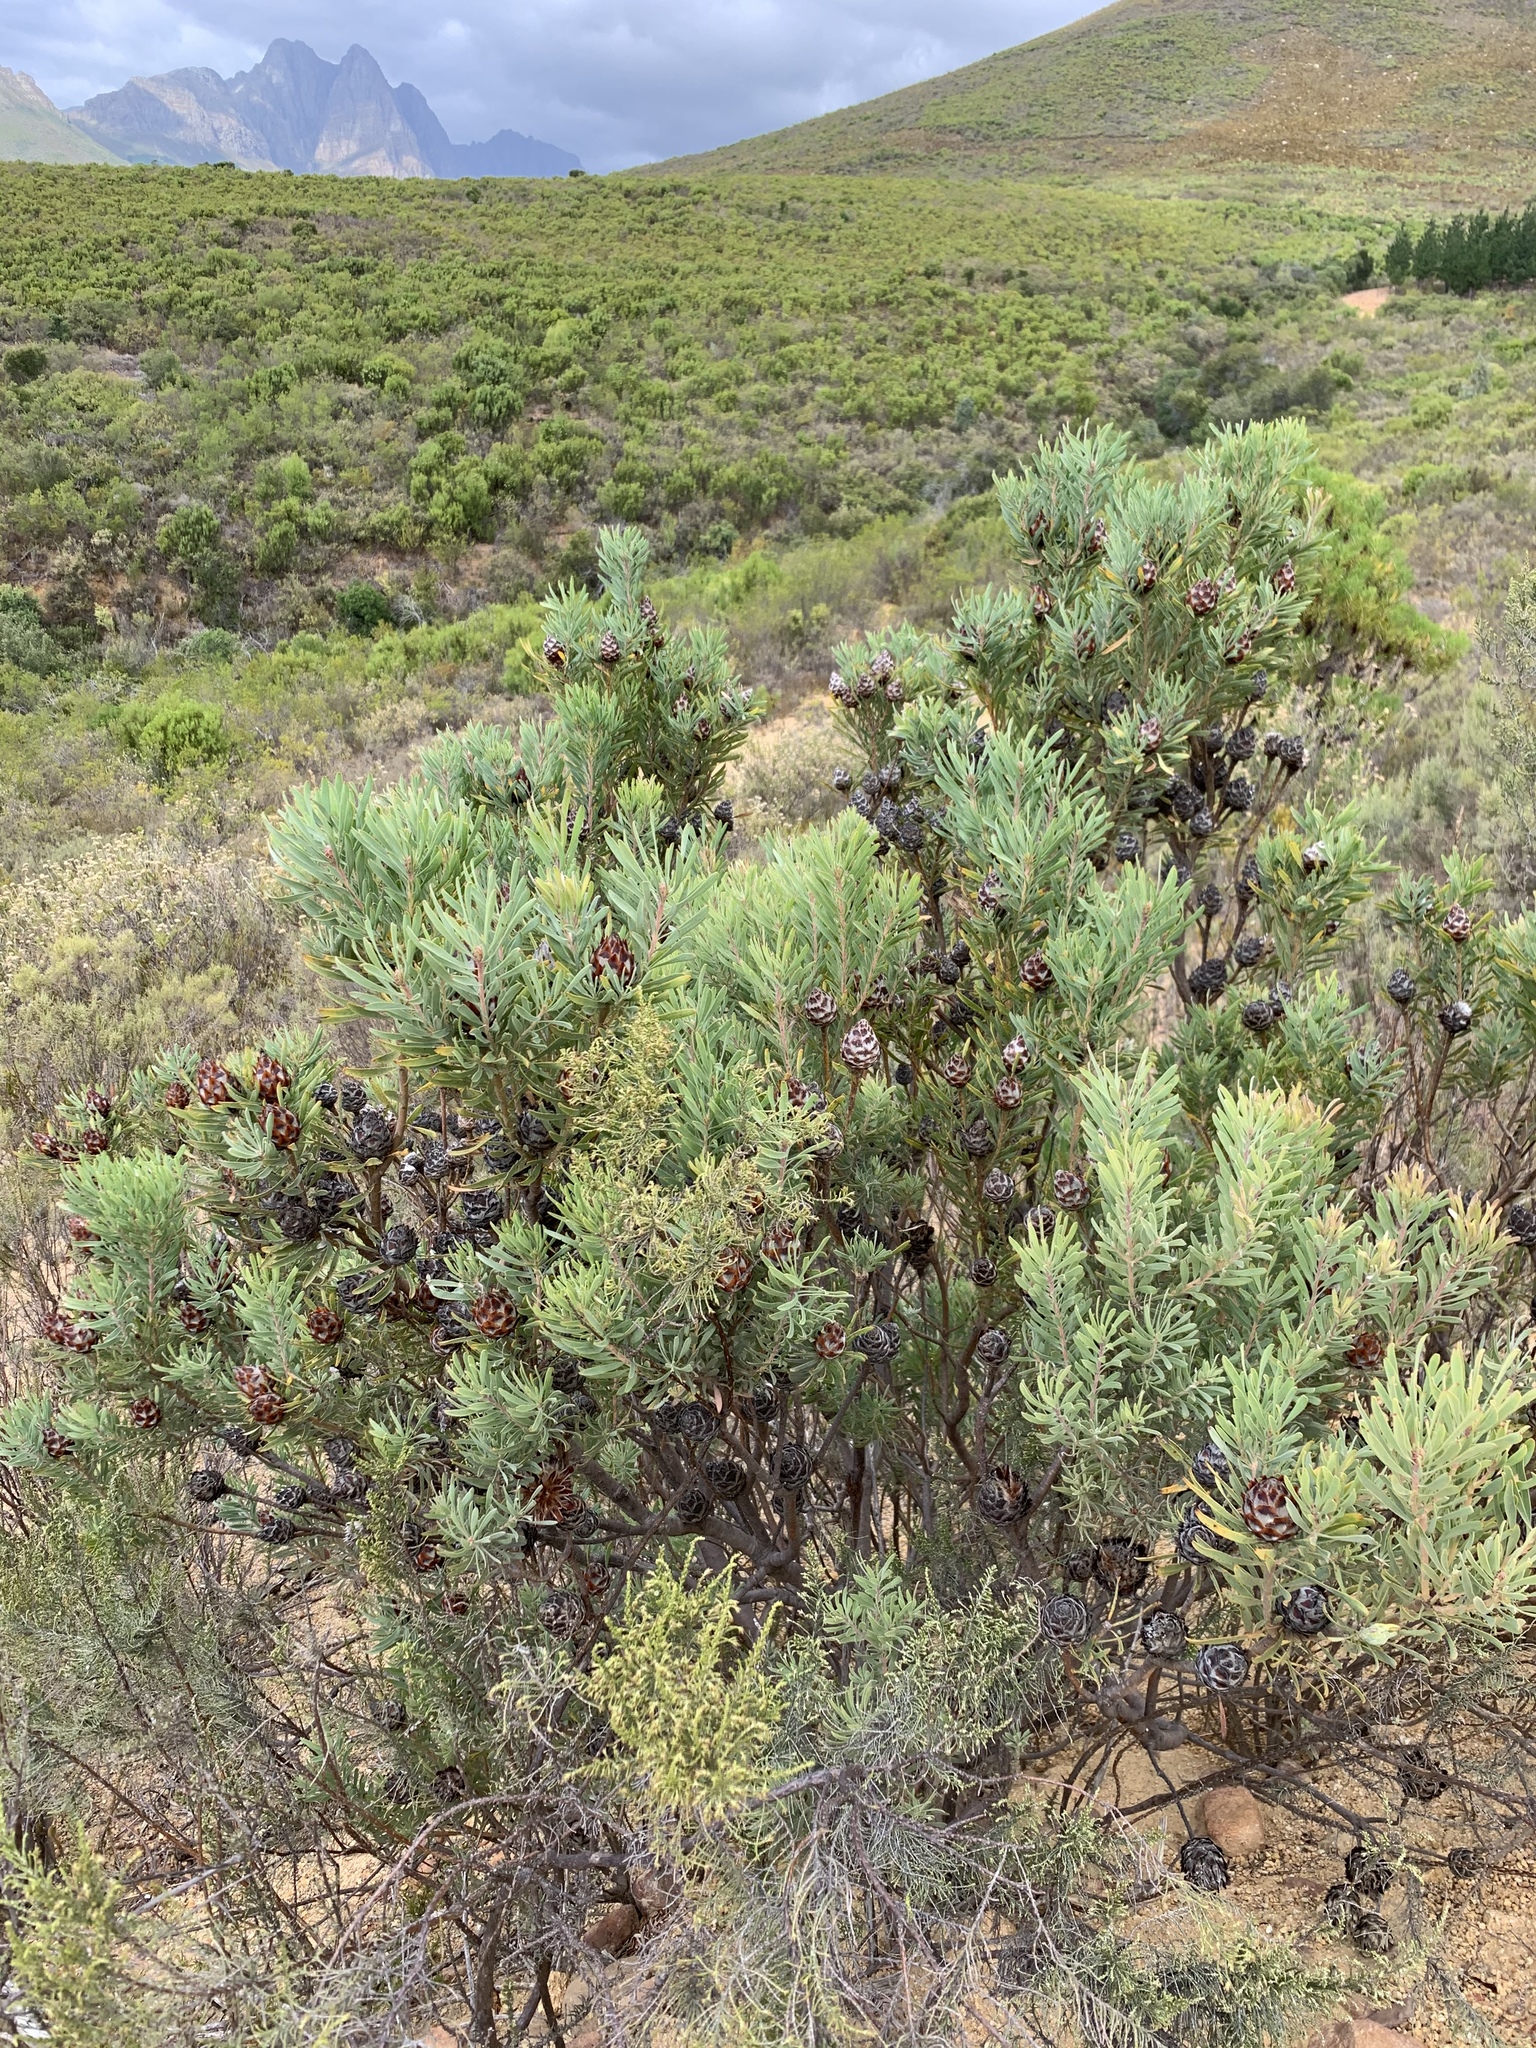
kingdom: Plantae
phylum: Tracheophyta
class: Magnoliopsida
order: Proteales
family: Proteaceae
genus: Leucadendron
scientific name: Leucadendron rubrum
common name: Spinning top
